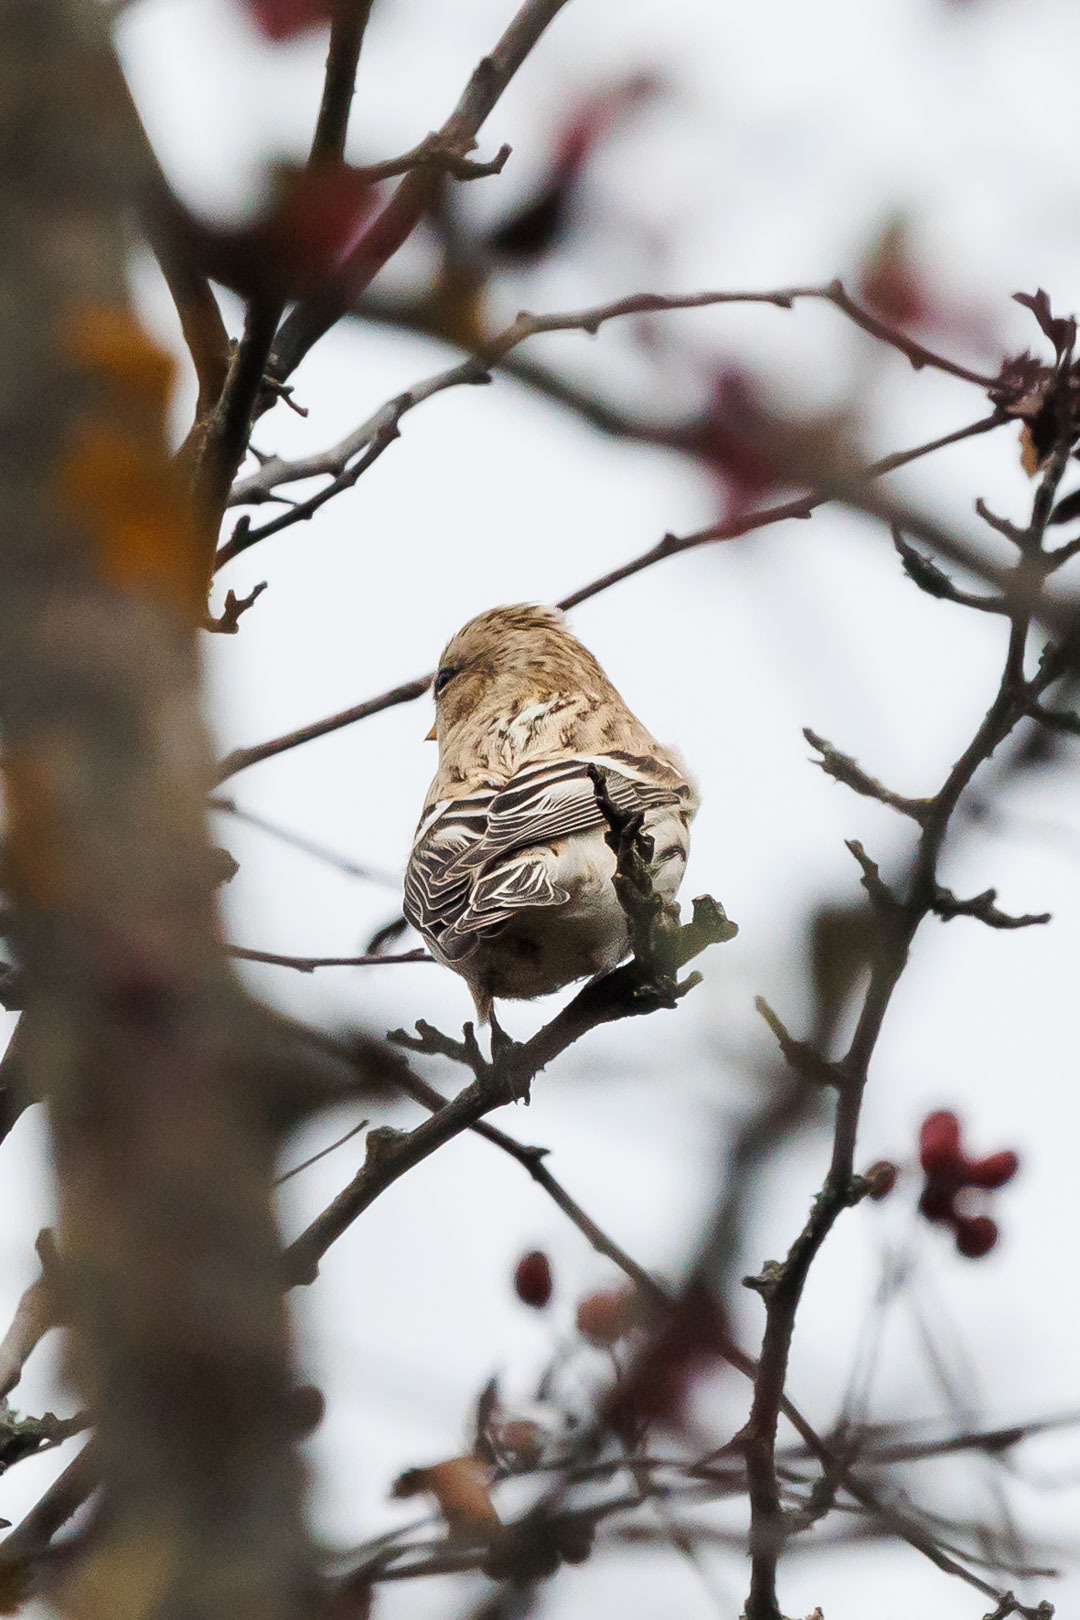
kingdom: Animalia
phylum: Chordata
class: Aves
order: Passeriformes
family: Fringillidae
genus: Acanthis
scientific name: Acanthis flammea
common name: Common redpoll
